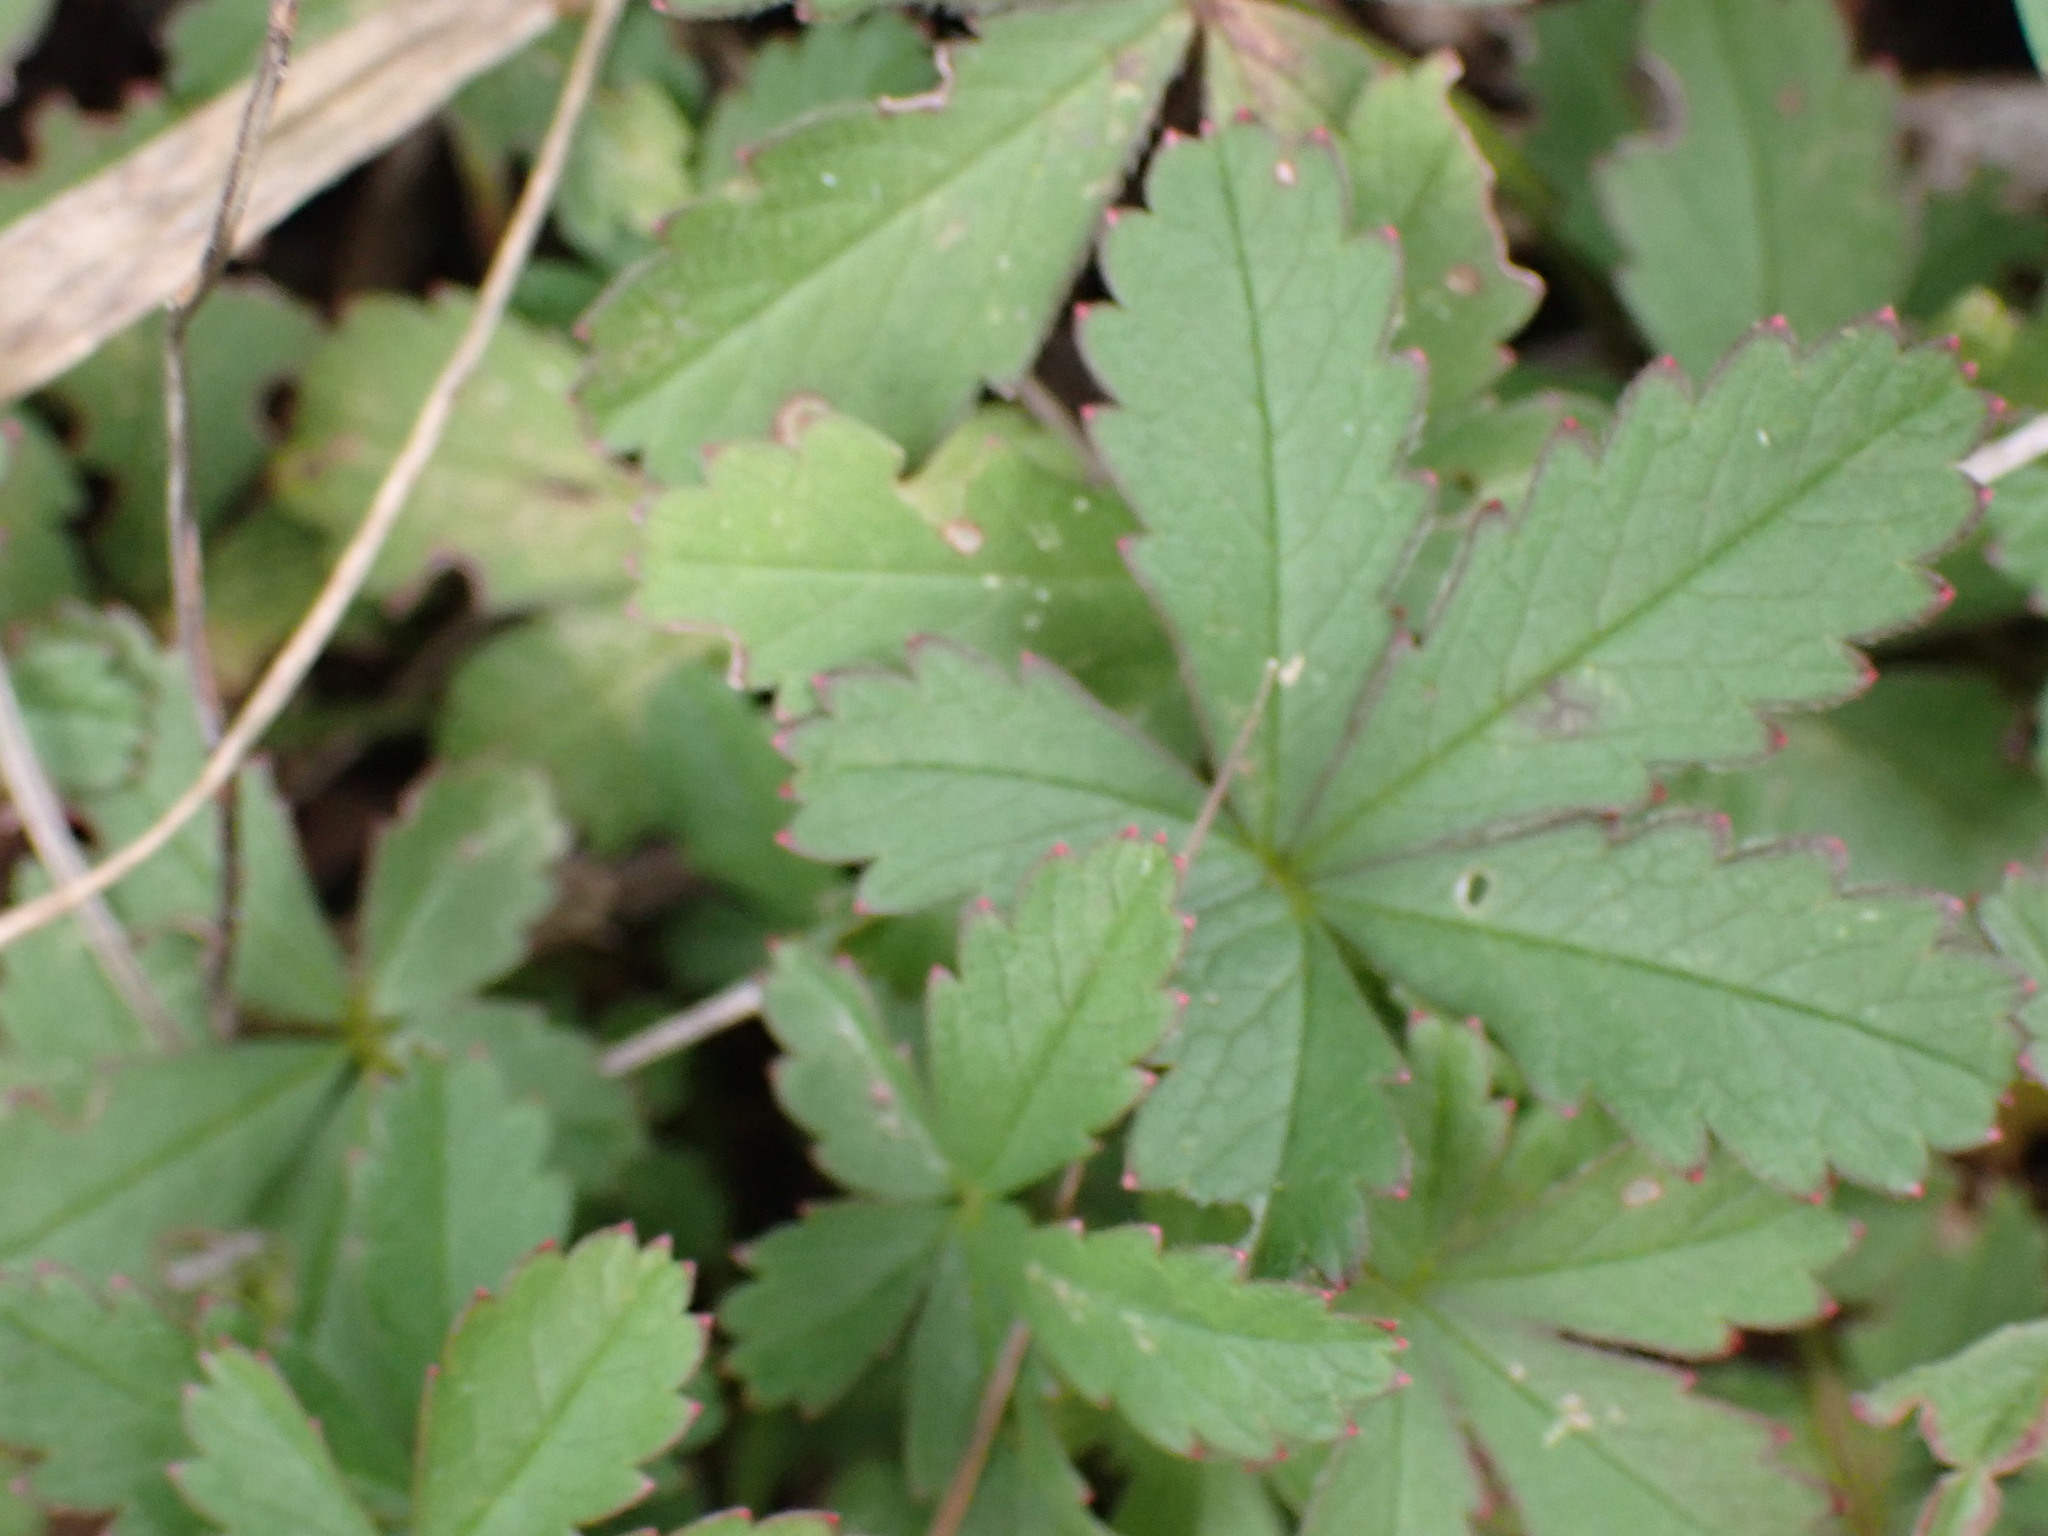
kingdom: Plantae
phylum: Tracheophyta
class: Magnoliopsida
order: Rosales
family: Rosaceae
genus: Potentilla
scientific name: Potentilla reptans
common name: Creeping cinquefoil
